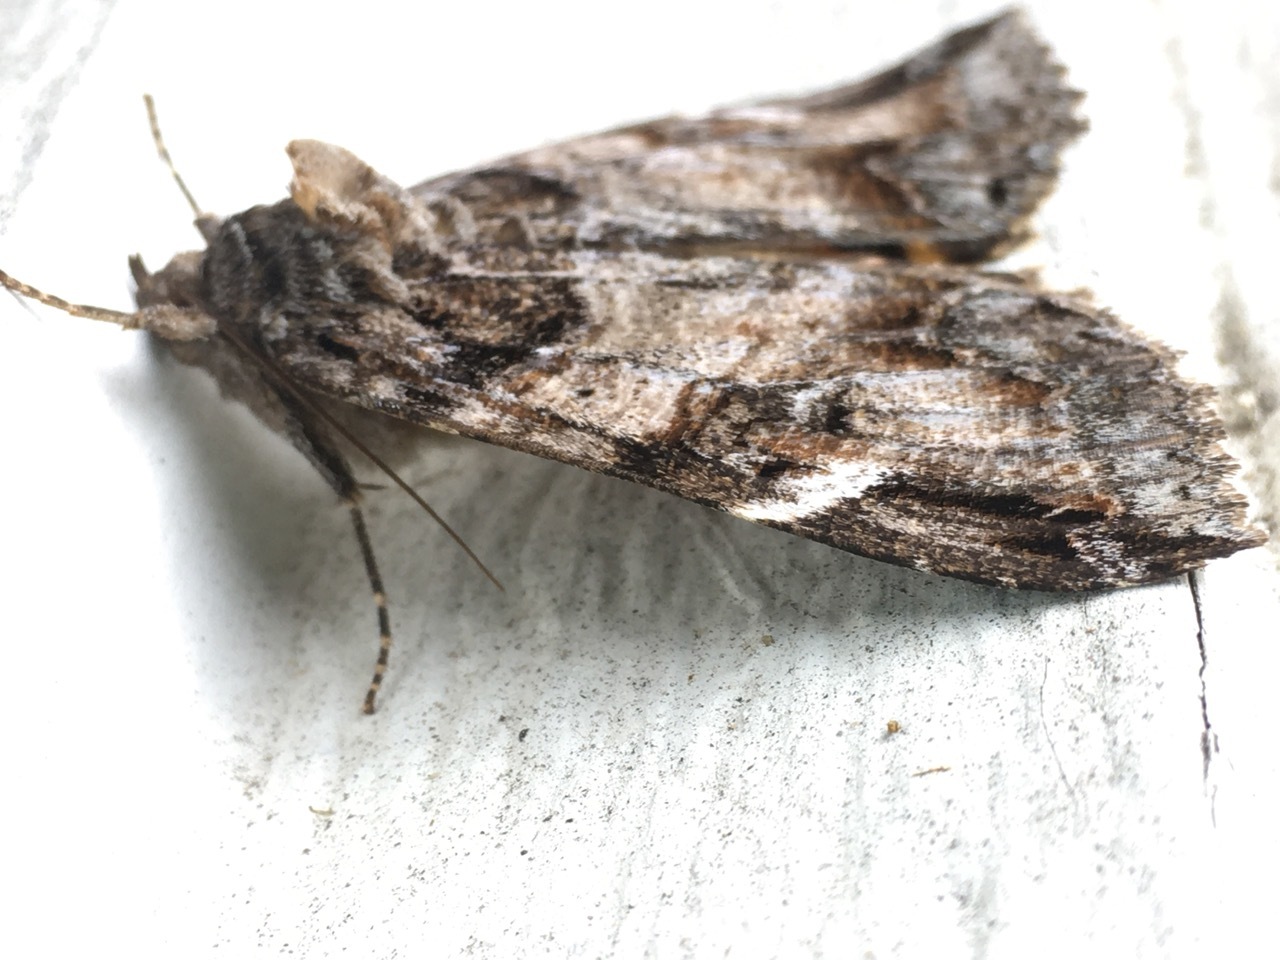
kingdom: Animalia
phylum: Arthropoda
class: Insecta
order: Lepidoptera
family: Erebidae
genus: Euparthenos
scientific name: Euparthenos nubilis
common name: Locust underwing
